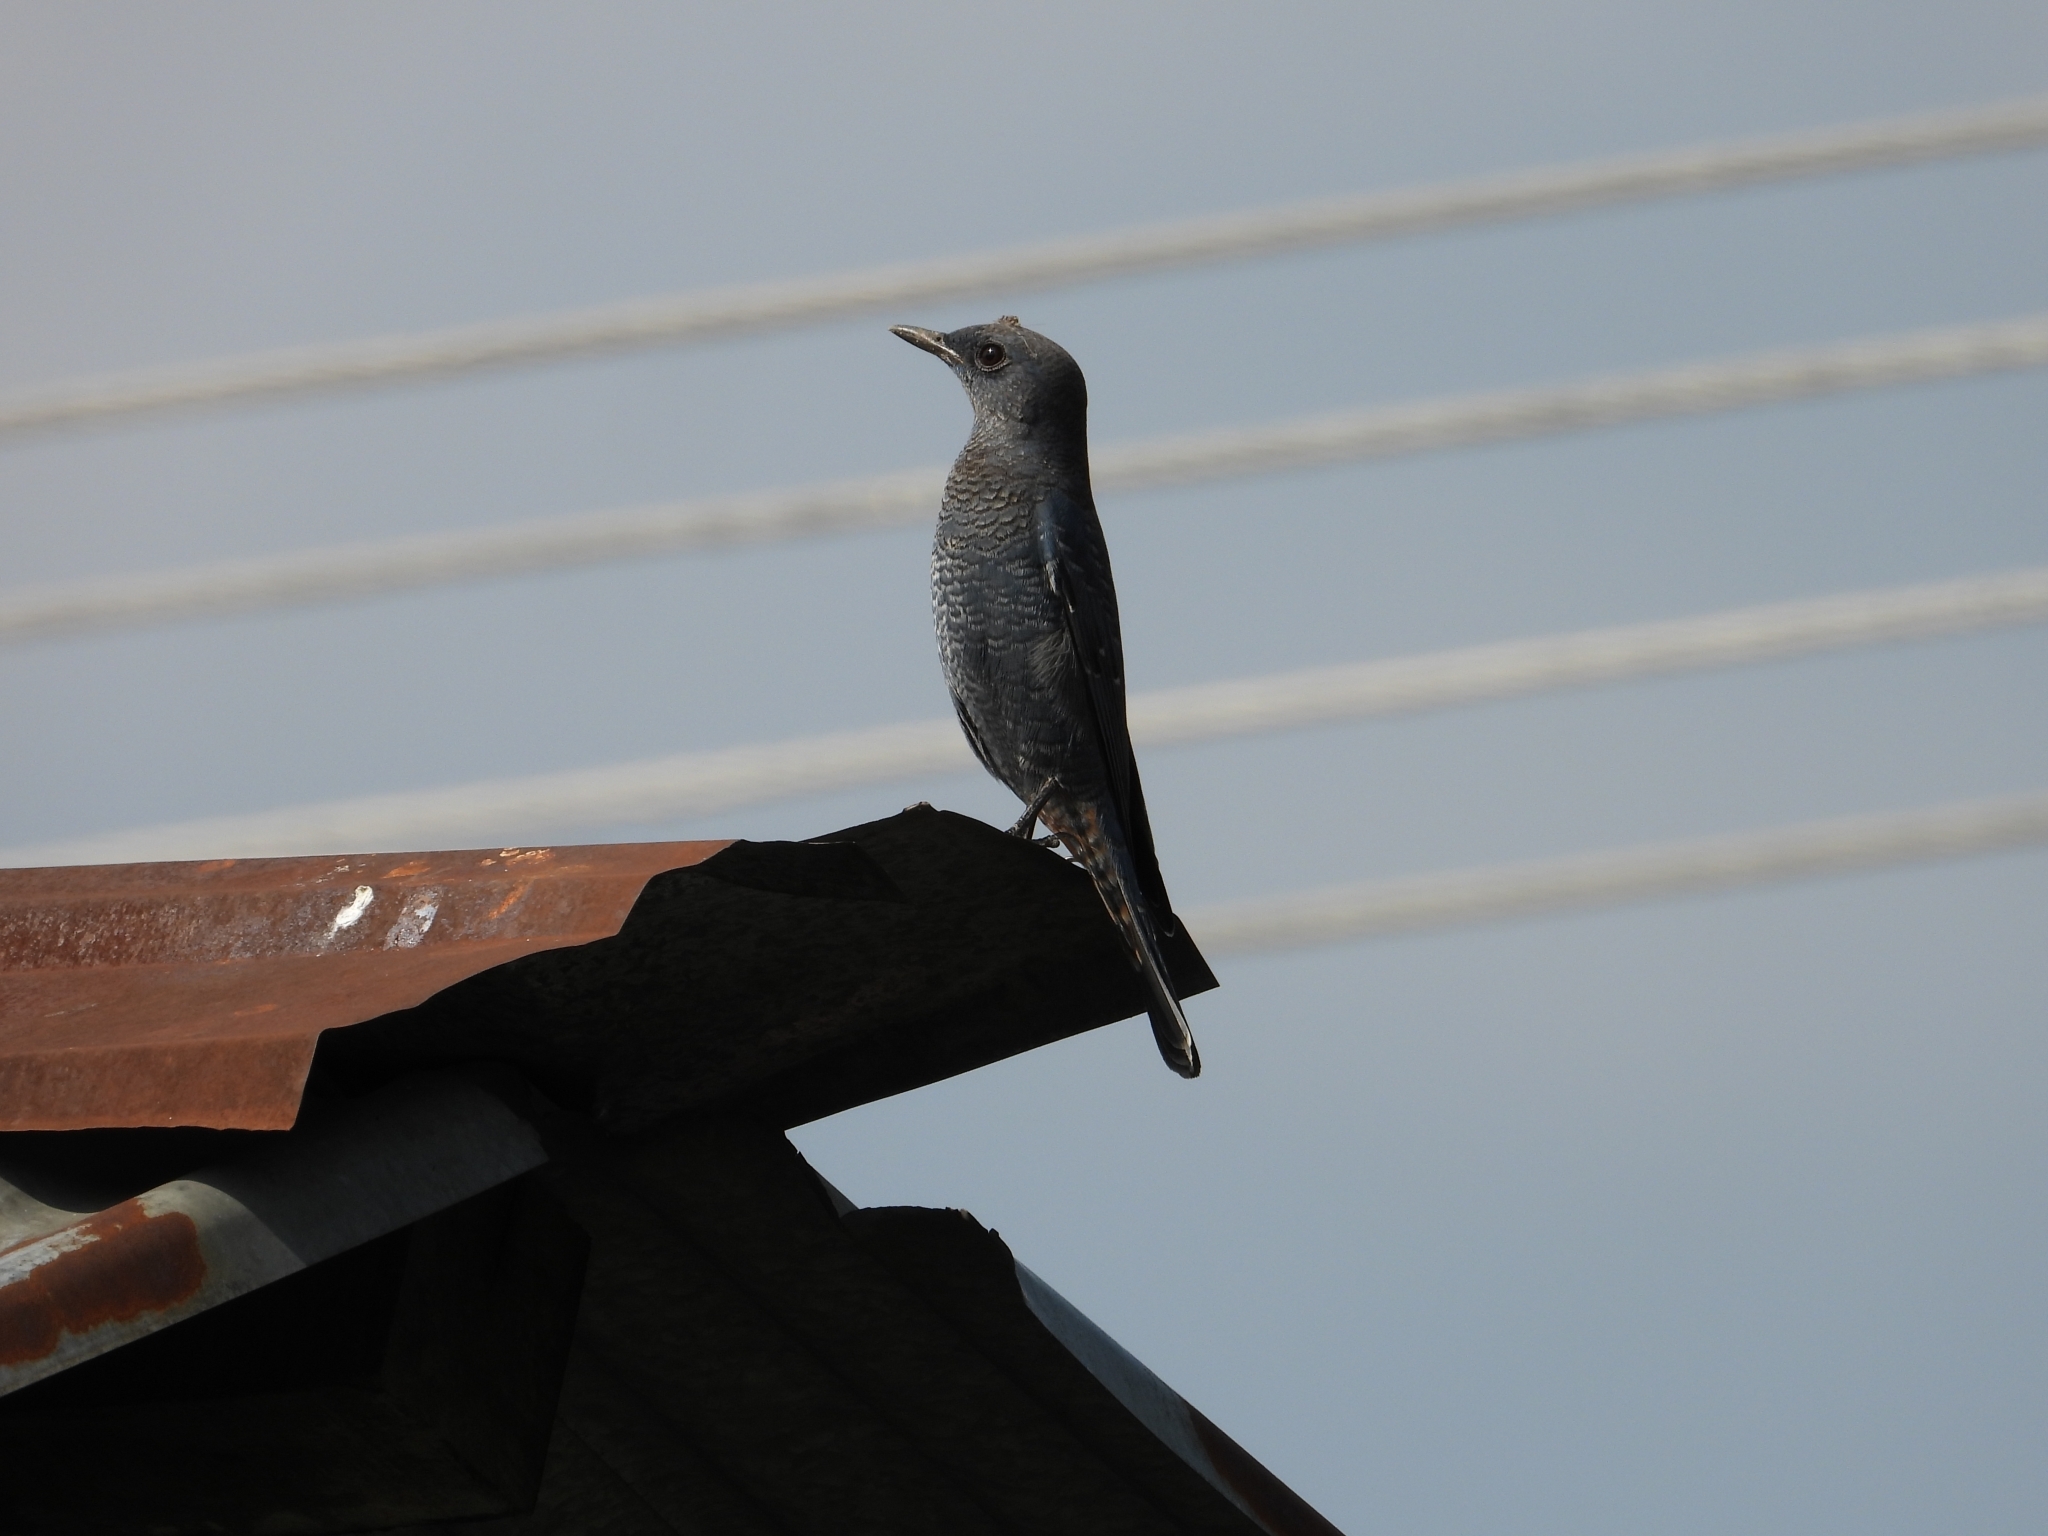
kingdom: Animalia
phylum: Chordata
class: Aves
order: Passeriformes
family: Muscicapidae
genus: Monticola
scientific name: Monticola solitarius
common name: Blue rock thrush
